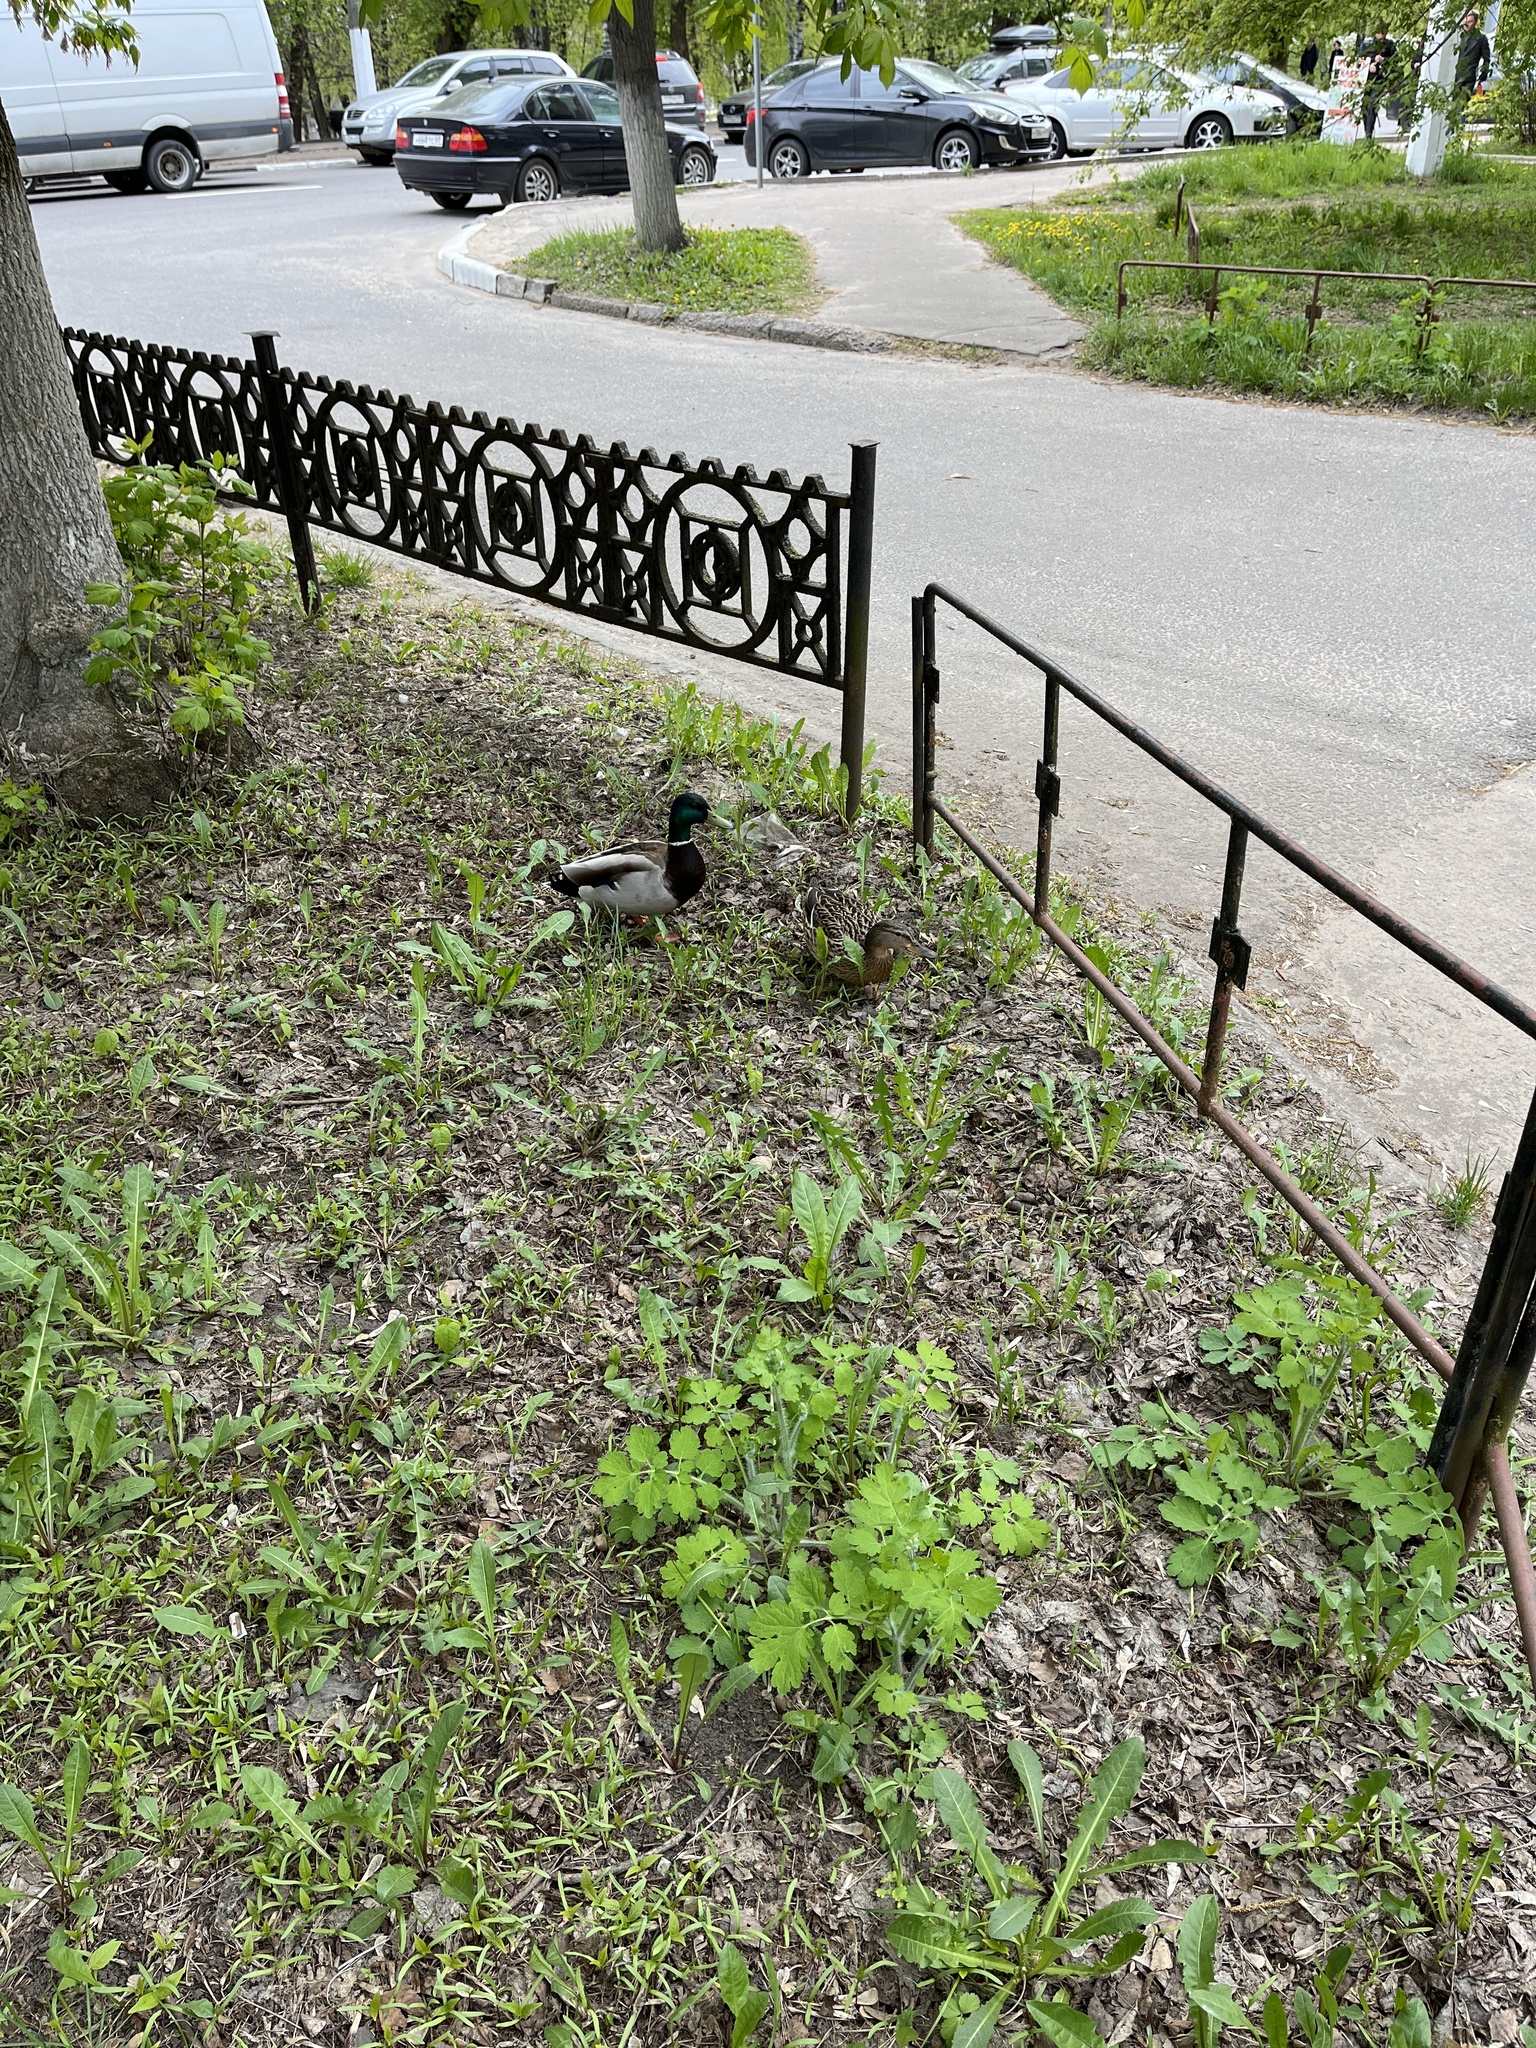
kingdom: Animalia
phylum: Chordata
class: Aves
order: Anseriformes
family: Anatidae
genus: Anas
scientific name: Anas platyrhynchos
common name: Mallard
